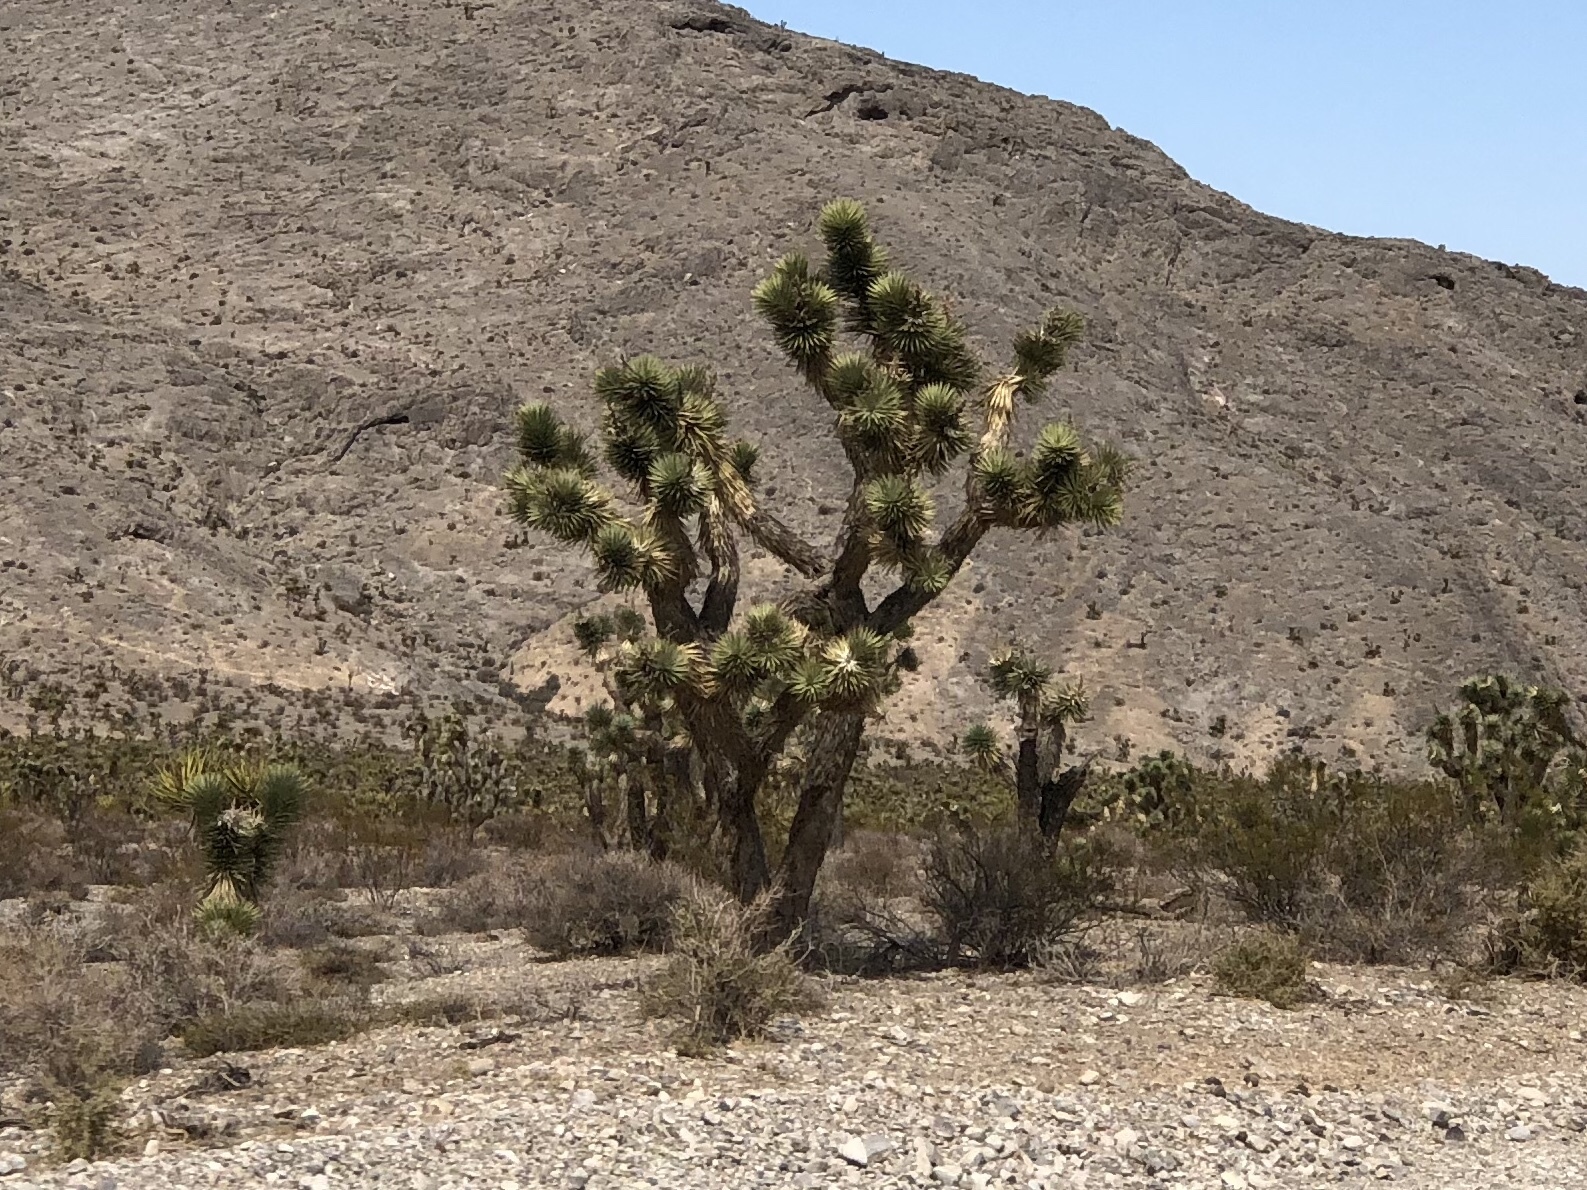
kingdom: Plantae
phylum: Tracheophyta
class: Liliopsida
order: Asparagales
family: Asparagaceae
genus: Yucca
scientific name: Yucca brevifolia
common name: Joshua tree
